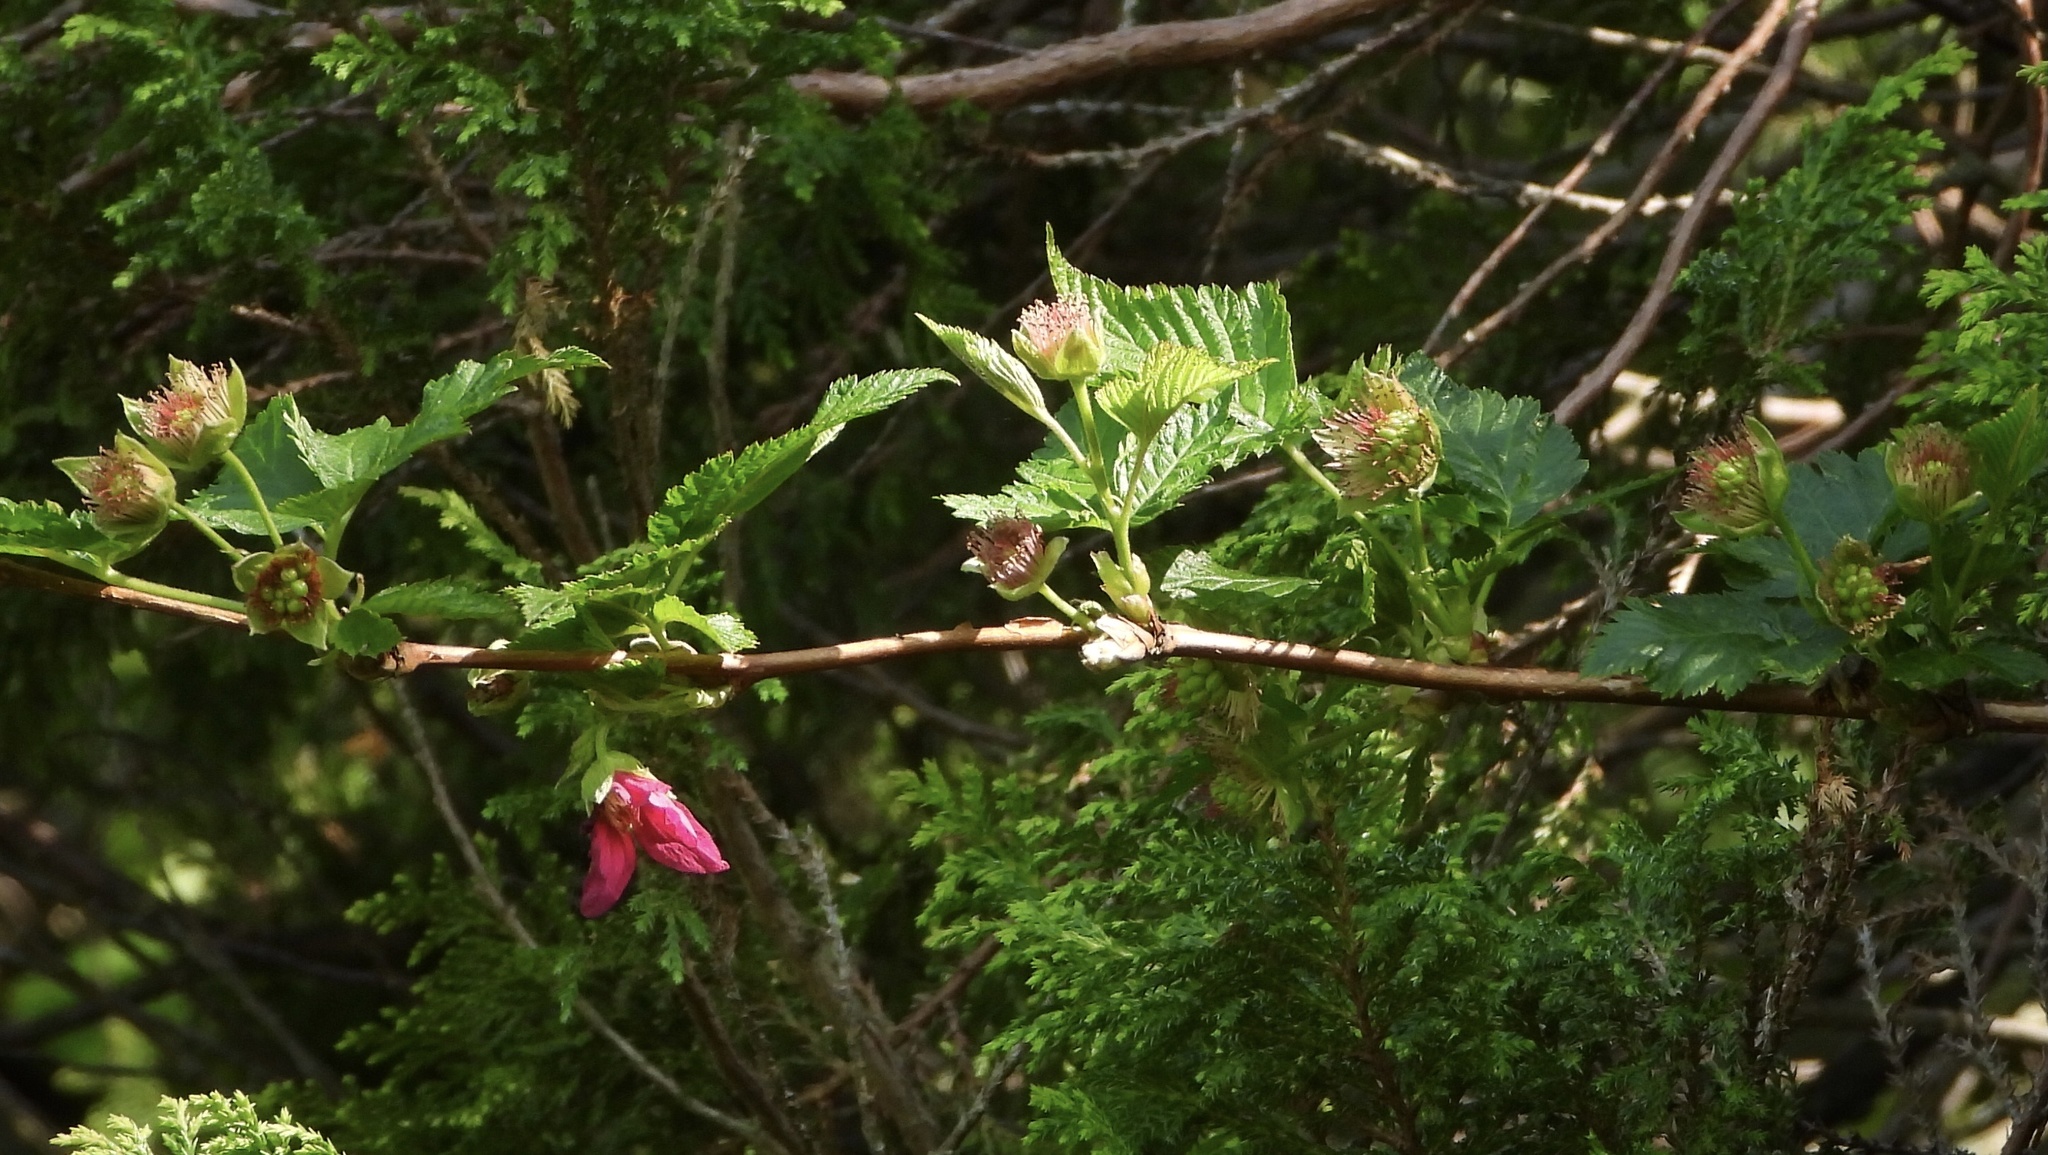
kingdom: Plantae
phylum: Tracheophyta
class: Magnoliopsida
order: Rosales
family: Rosaceae
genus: Rubus
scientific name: Rubus spectabilis
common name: Salmonberry
